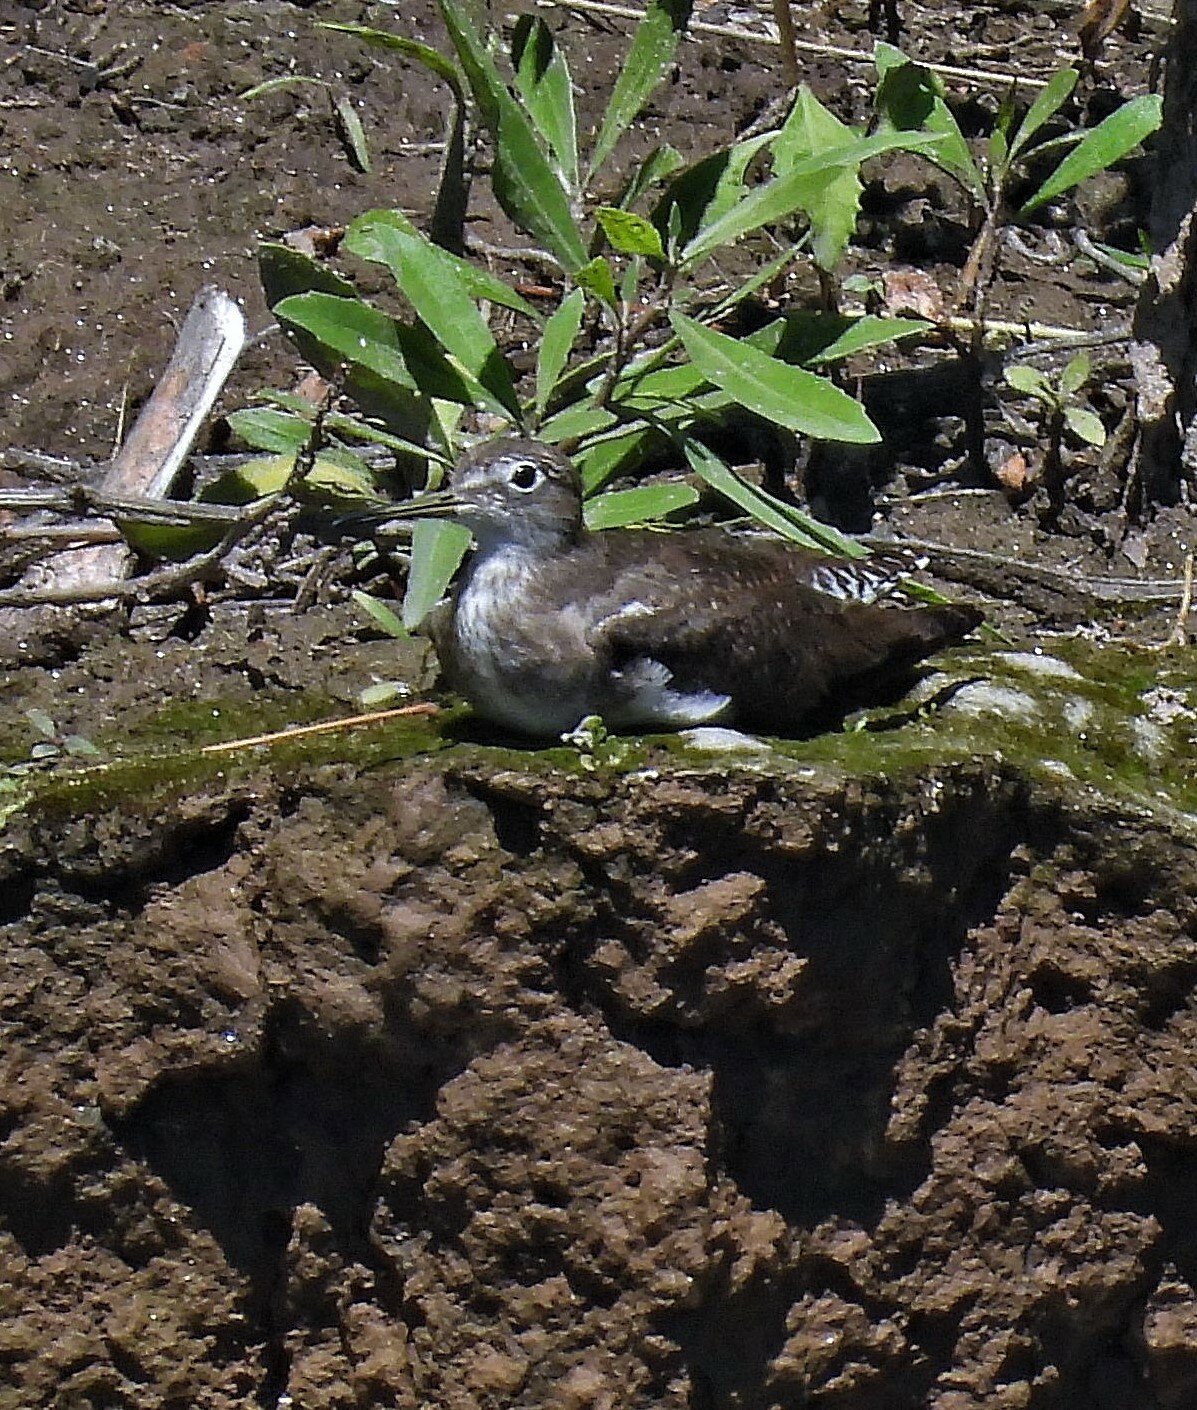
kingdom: Animalia
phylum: Chordata
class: Aves
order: Charadriiformes
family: Scolopacidae
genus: Tringa
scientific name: Tringa solitaria
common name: Solitary sandpiper
